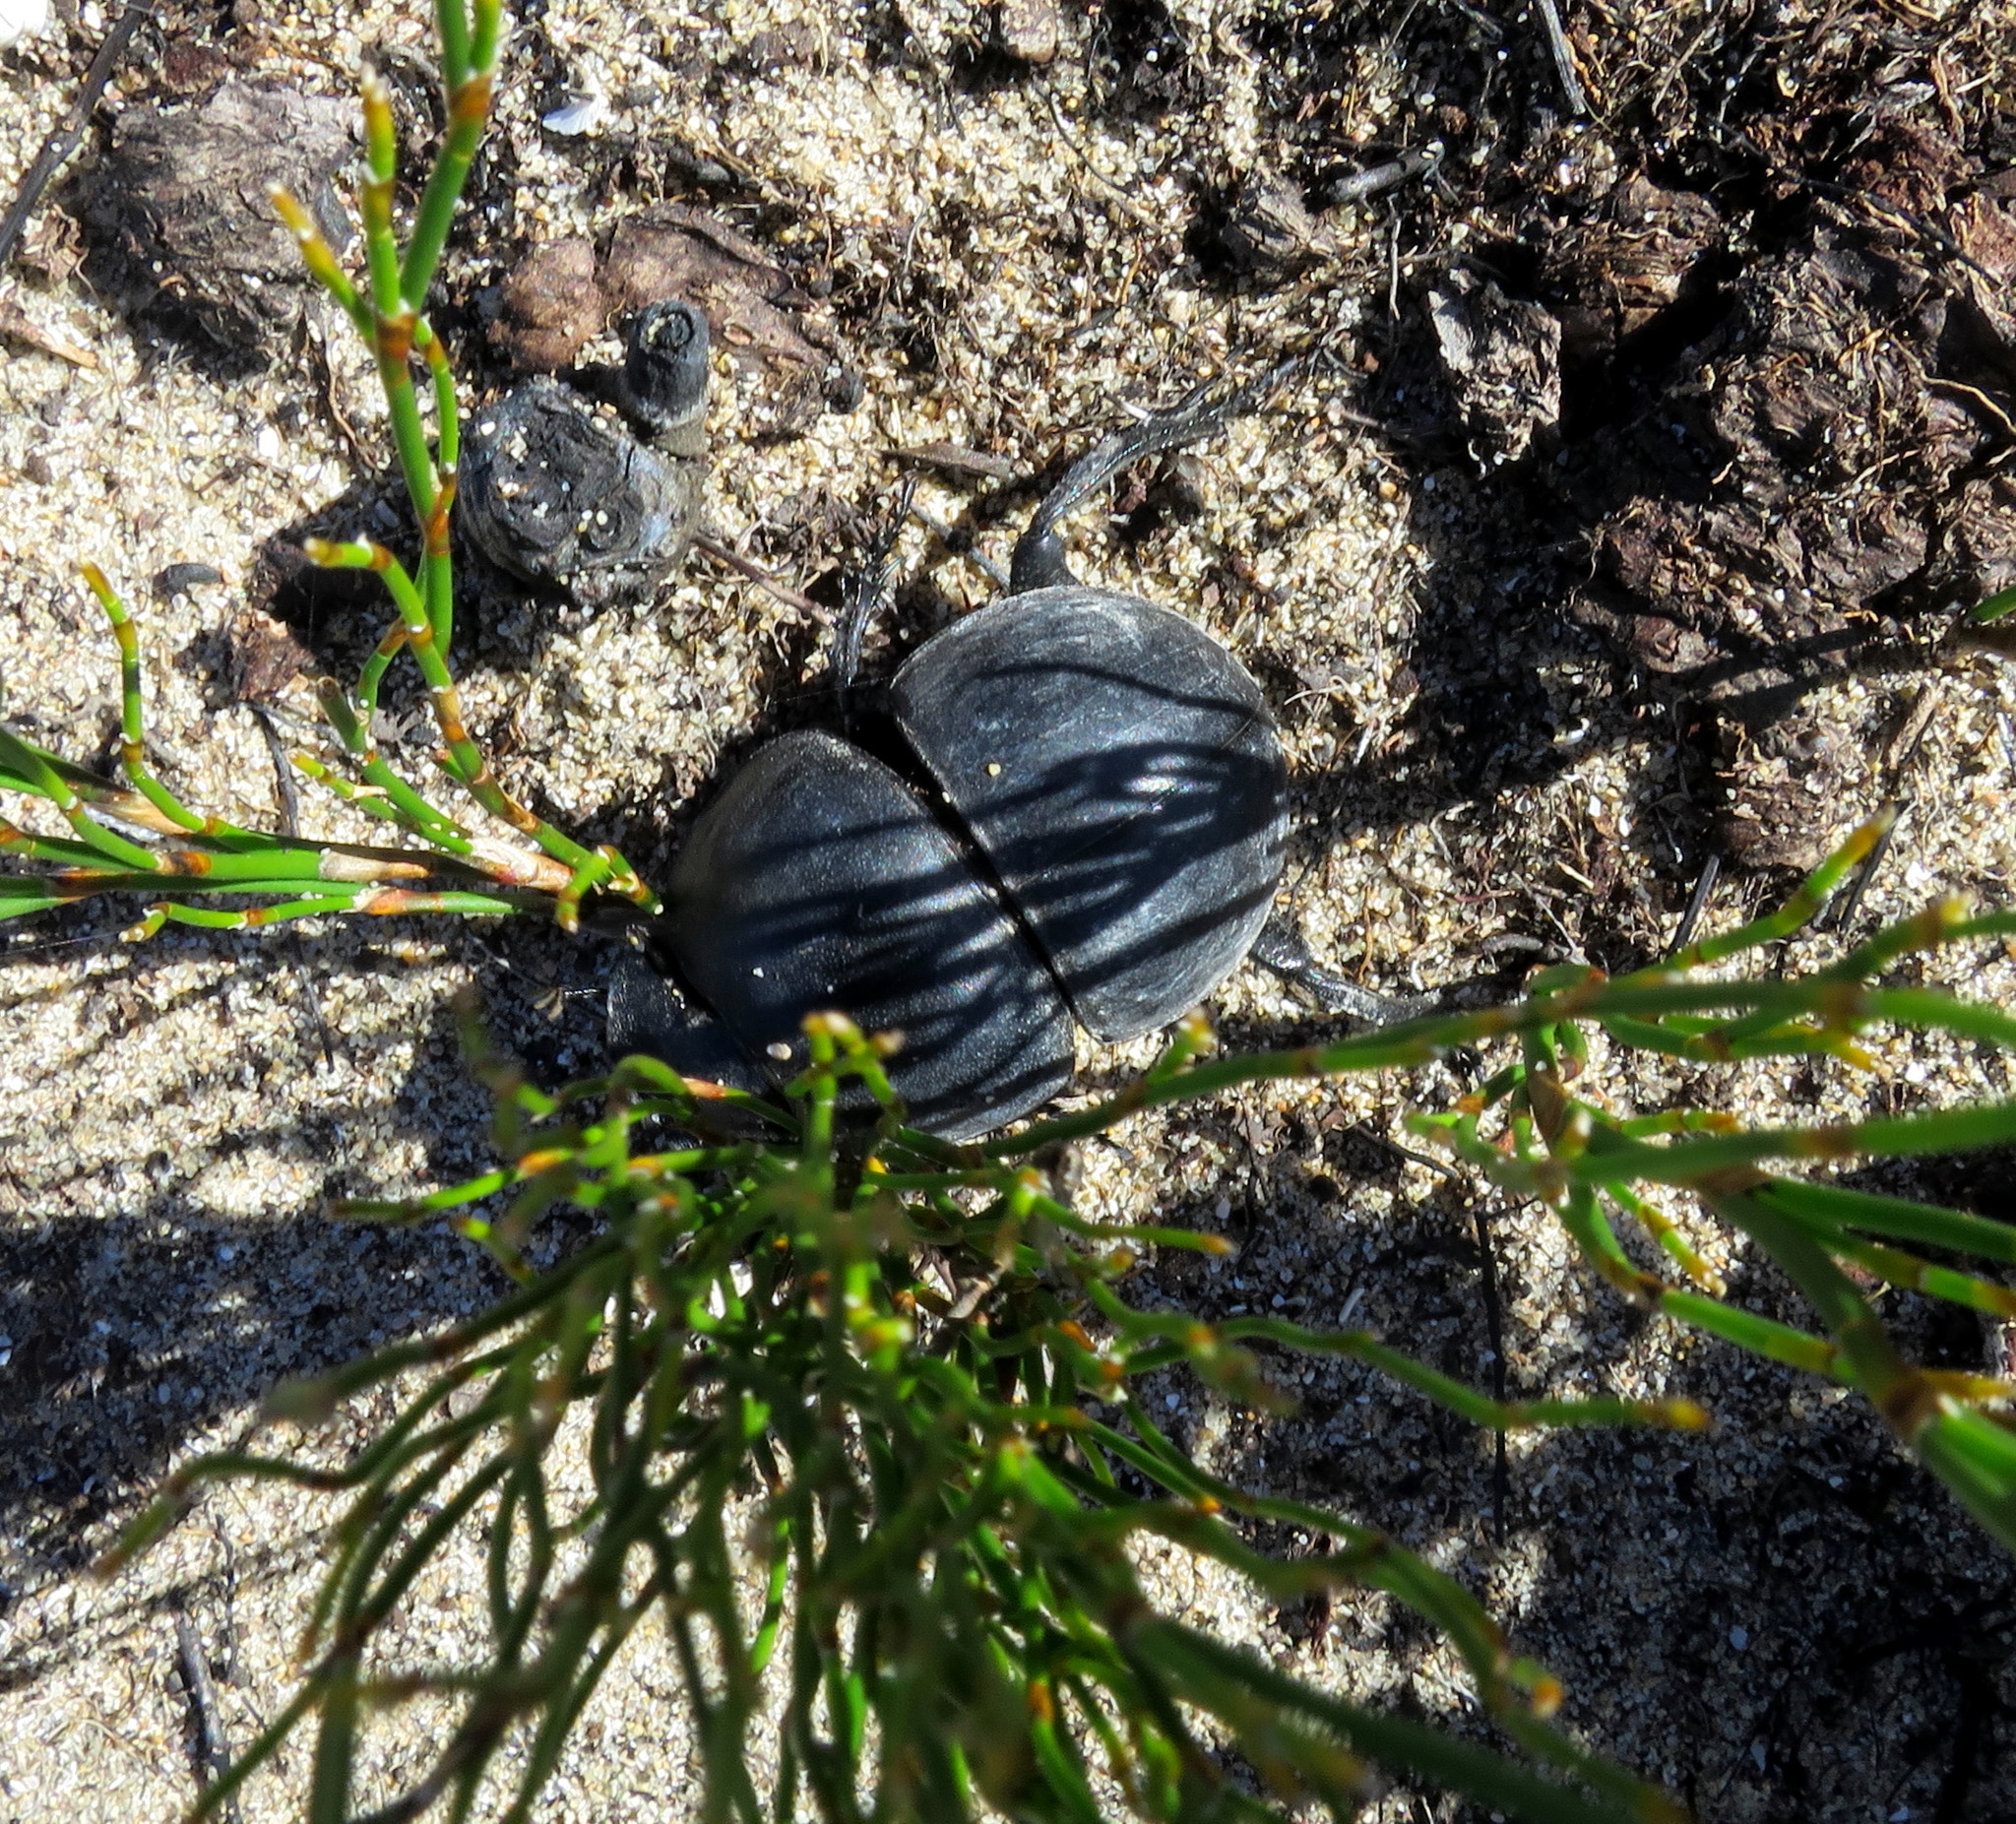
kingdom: Animalia
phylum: Arthropoda
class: Insecta
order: Coleoptera
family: Scarabaeidae
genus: Circellium
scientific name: Circellium bacchus
